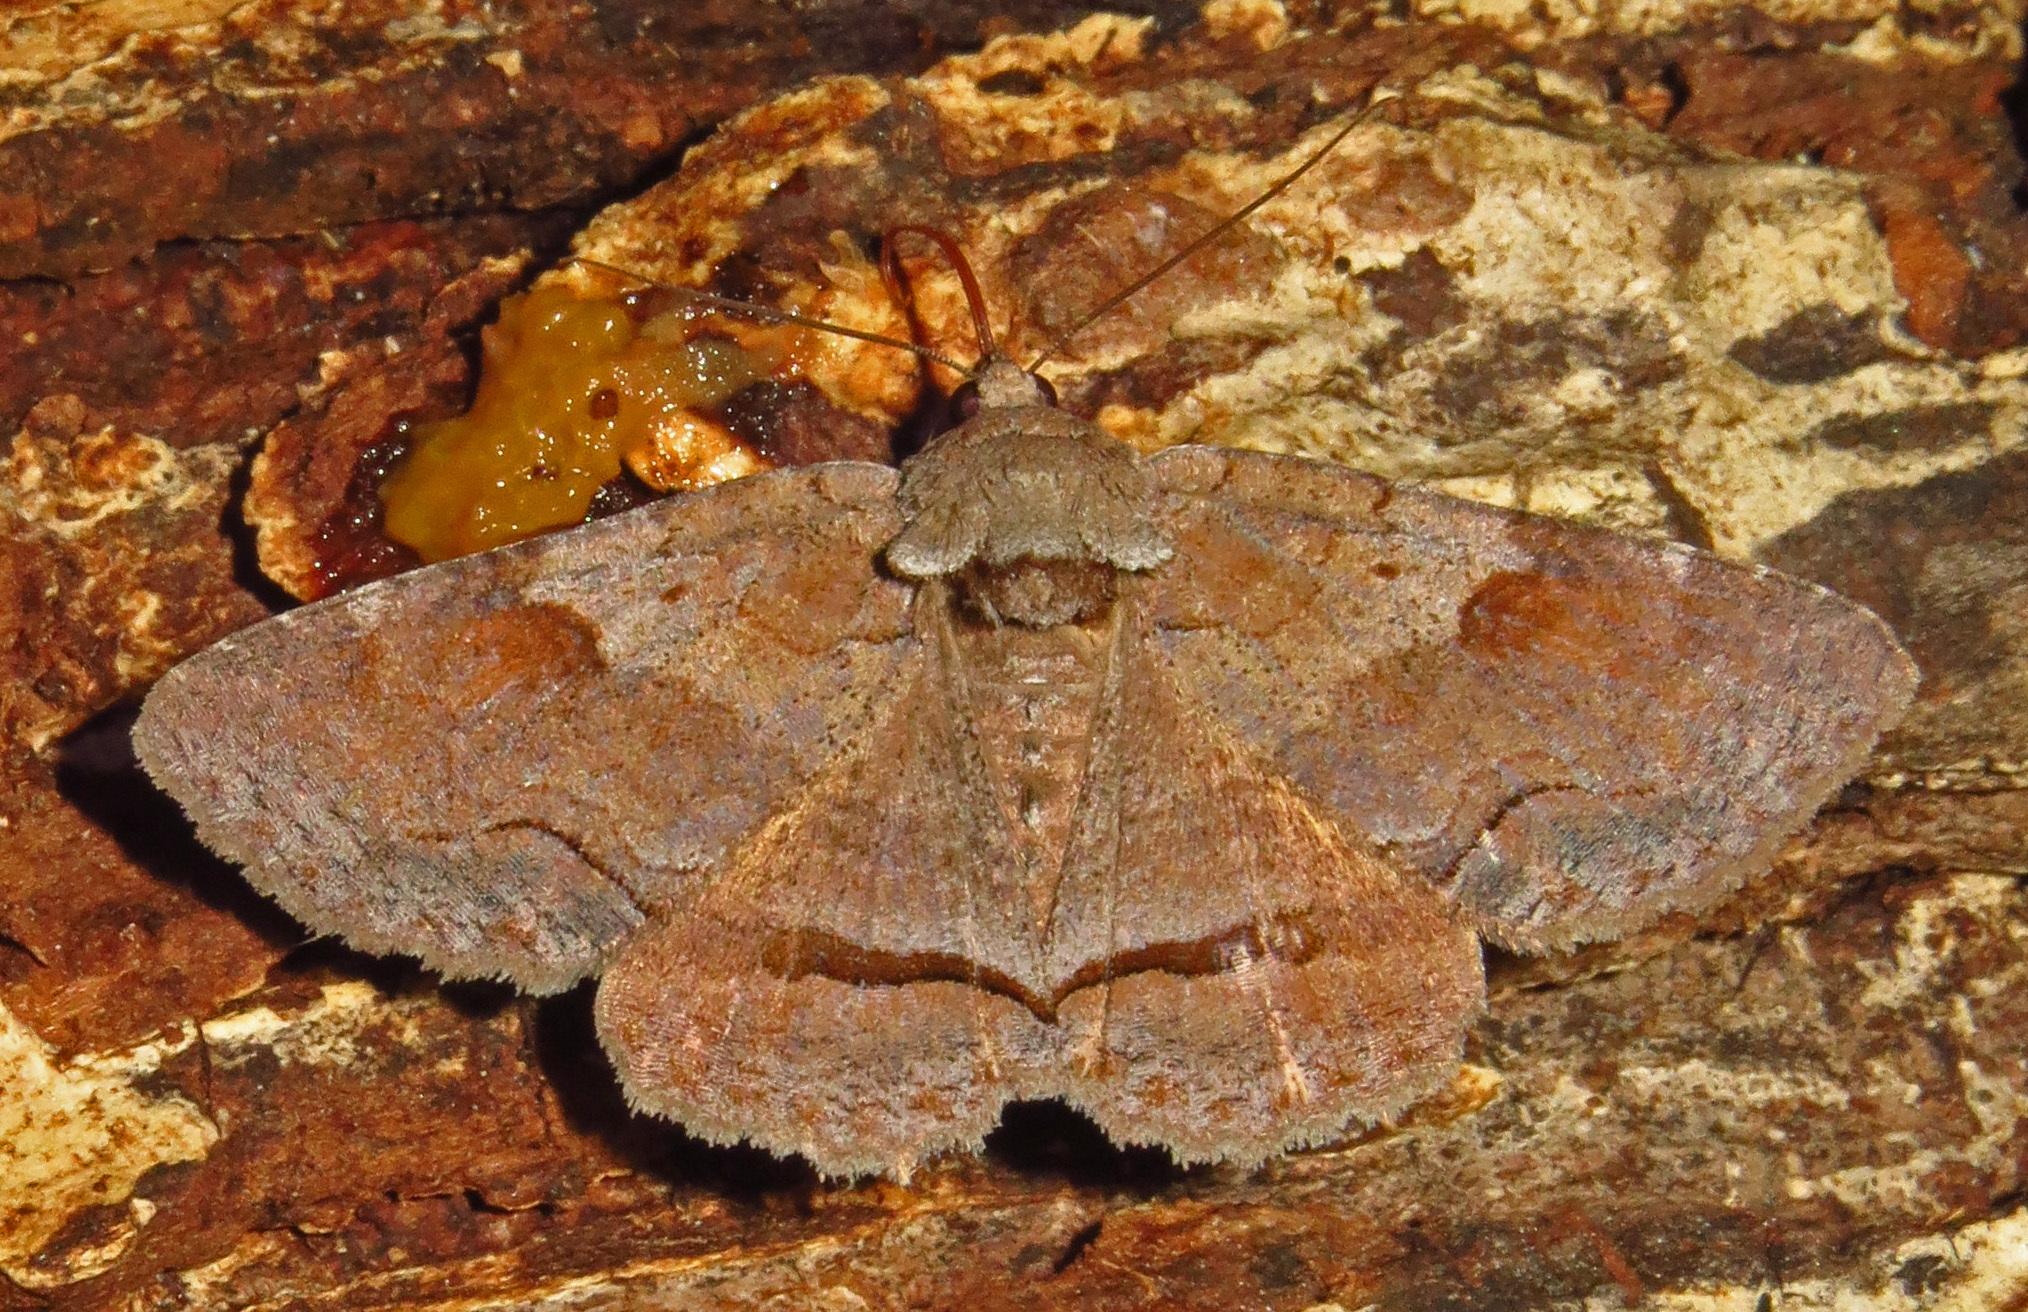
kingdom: Animalia
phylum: Arthropoda
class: Insecta
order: Lepidoptera
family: Erebidae
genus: Zale
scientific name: Zale obliqua
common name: Oblique zale moth
